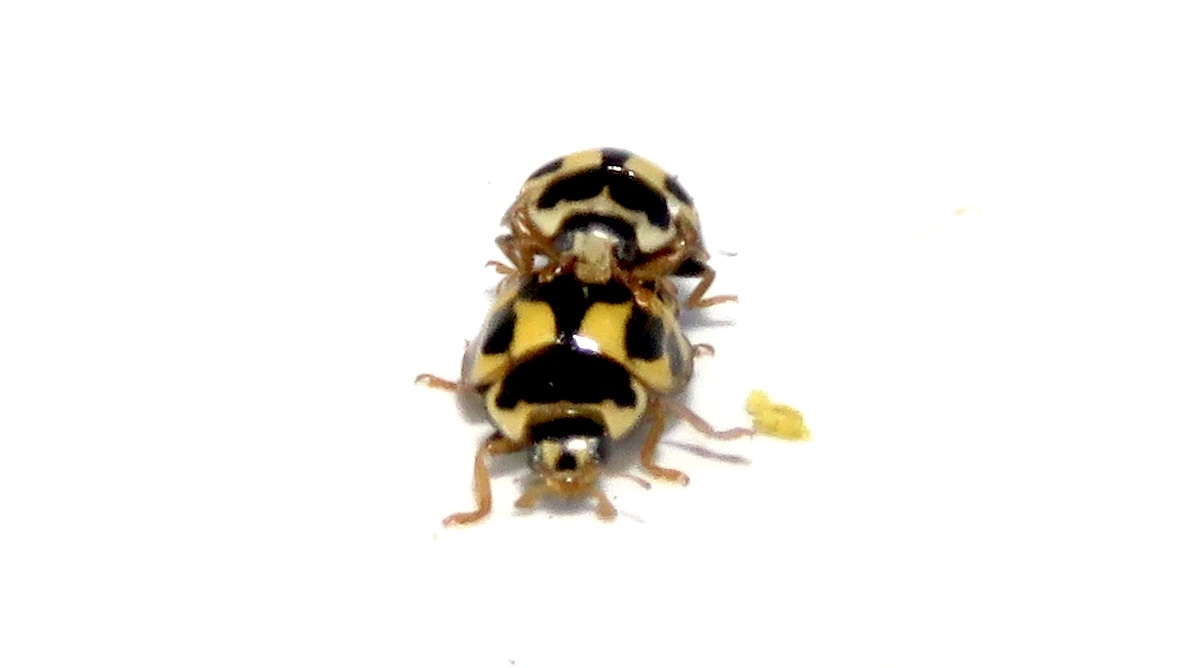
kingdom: Animalia
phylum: Arthropoda
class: Insecta
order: Coleoptera
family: Coccinellidae
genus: Propylaea
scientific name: Propylaea quatuordecimpunctata
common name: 14-spotted ladybird beetle
